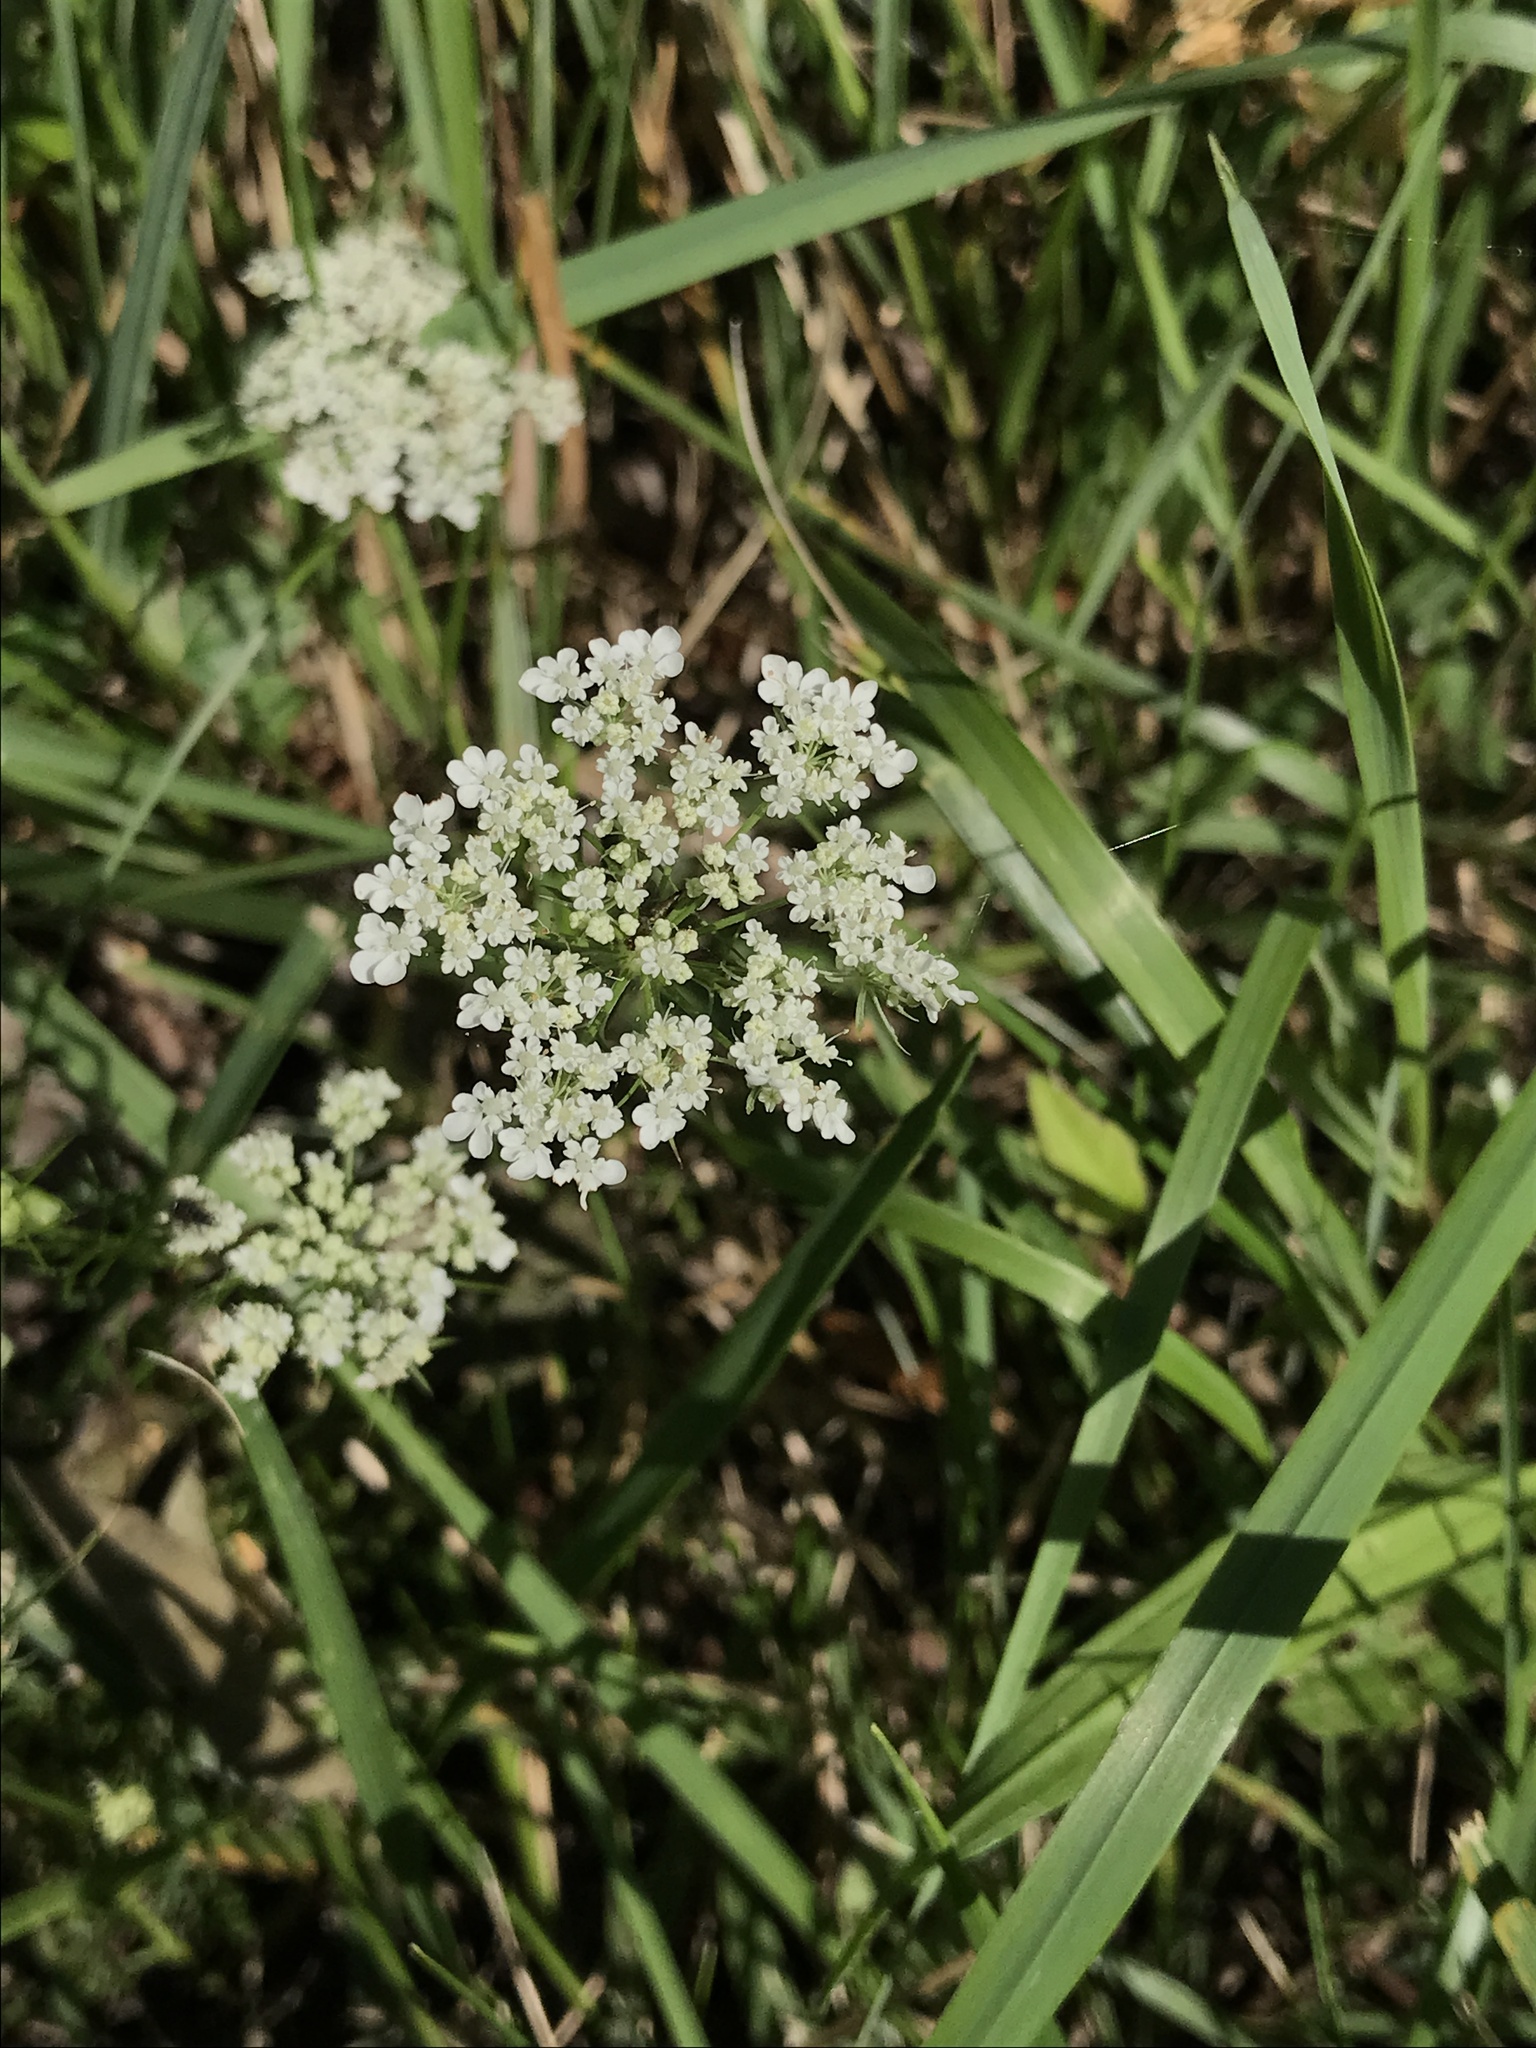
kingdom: Plantae
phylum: Tracheophyta
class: Magnoliopsida
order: Apiales
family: Apiaceae
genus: Daucus
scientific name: Daucus carota
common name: Wild carrot
